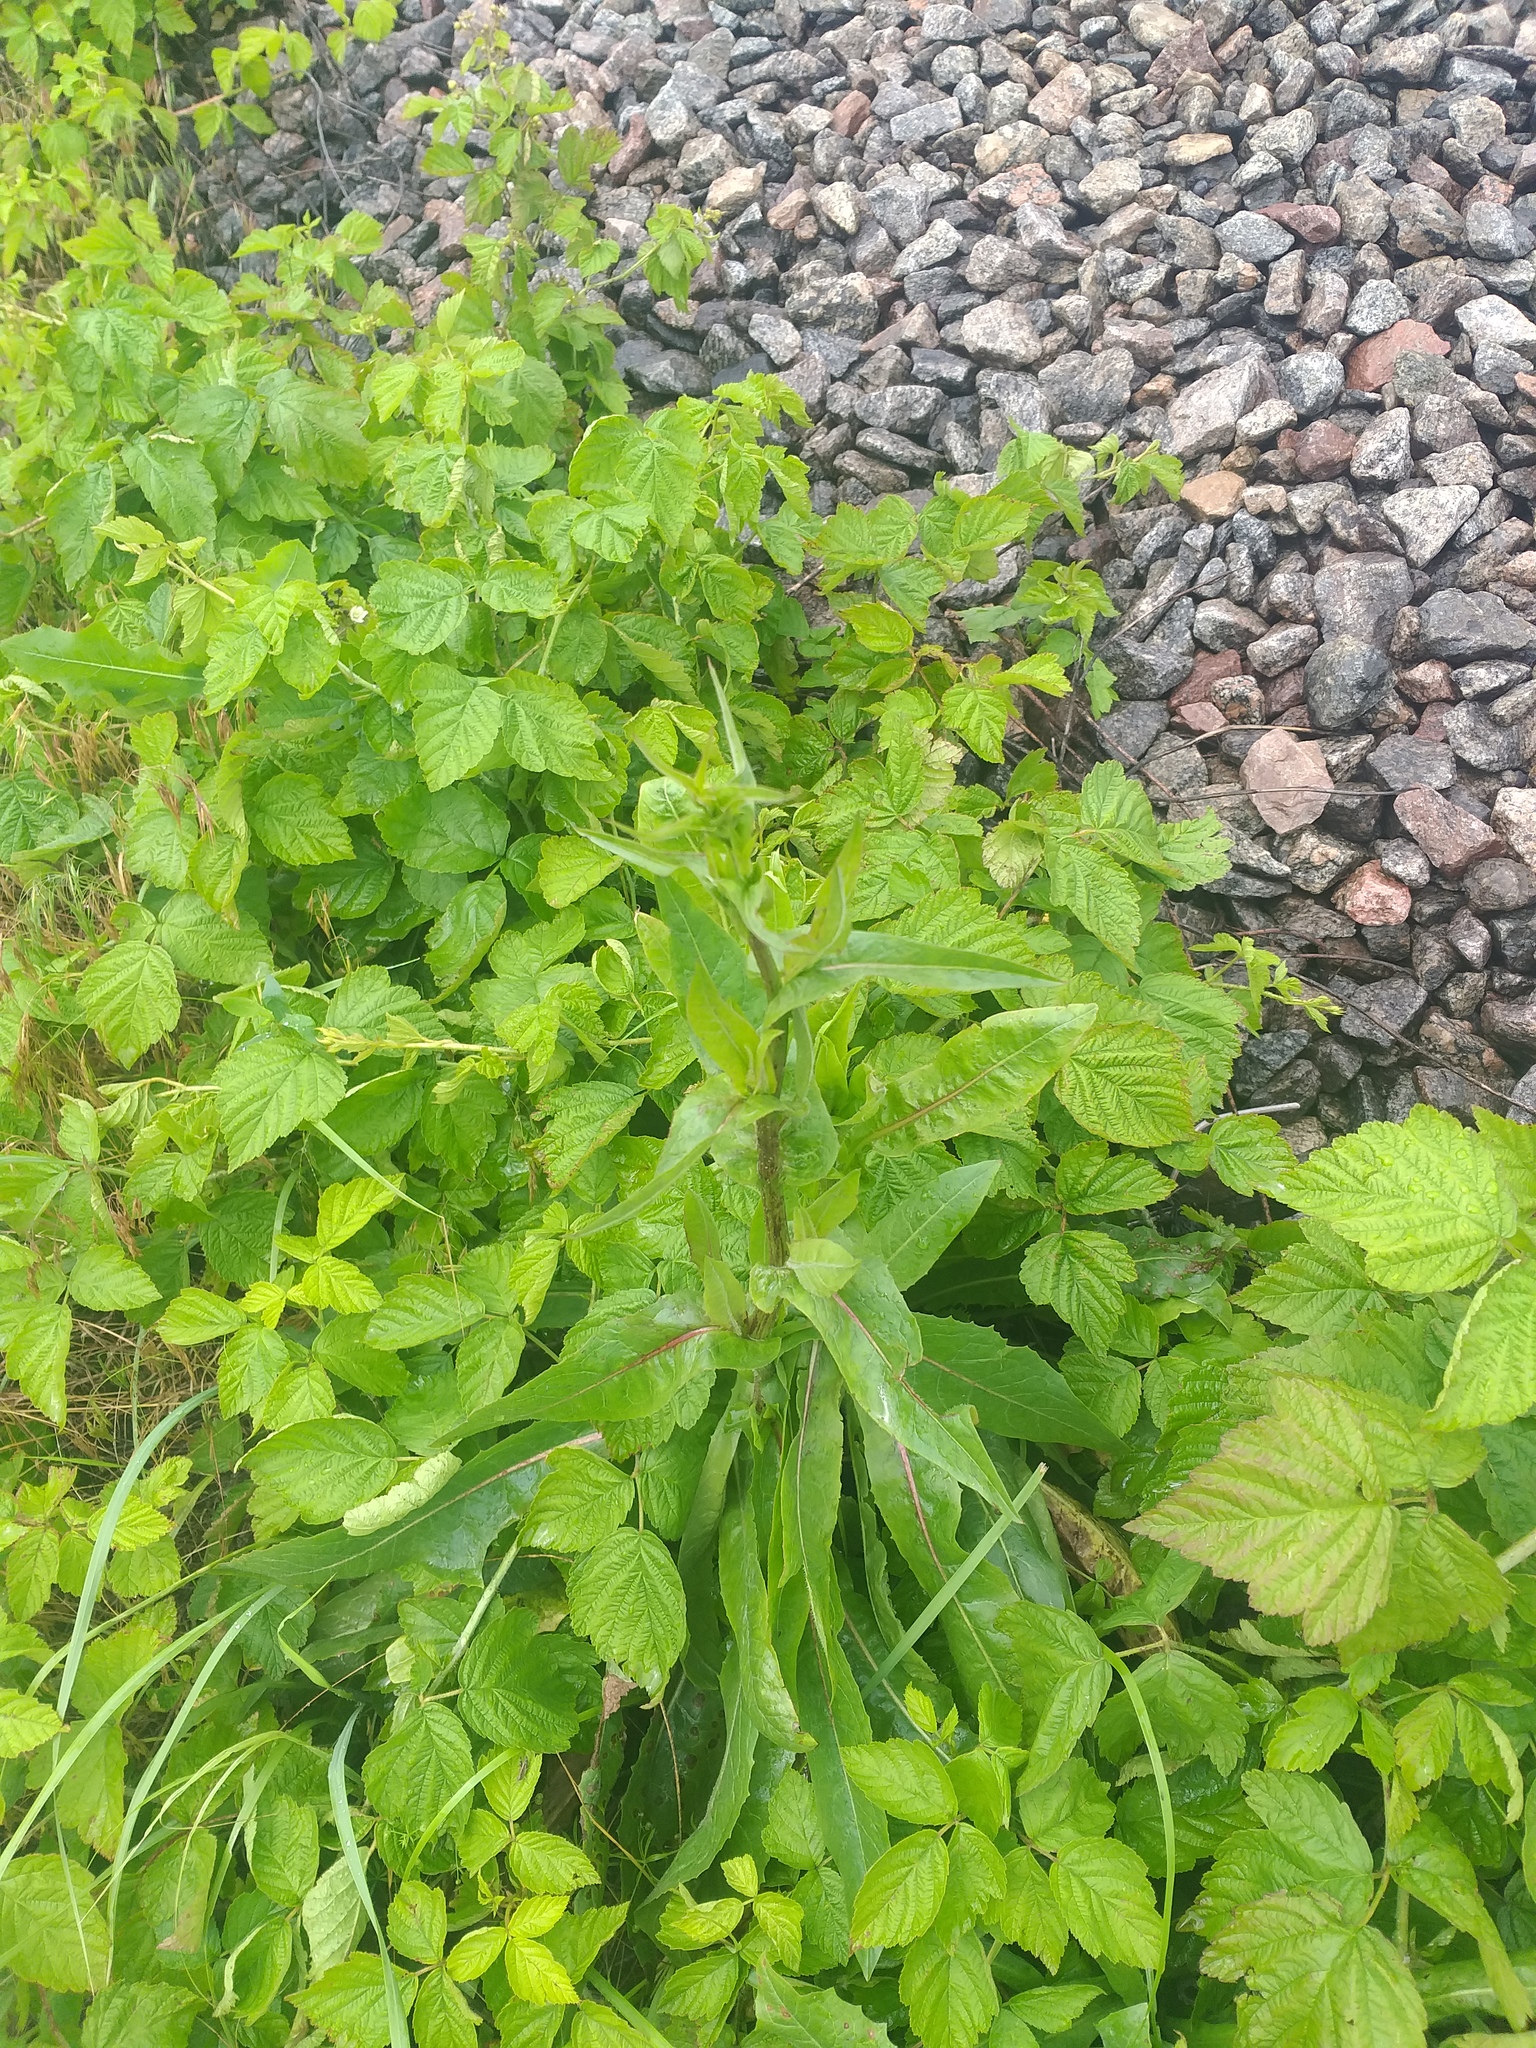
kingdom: Plantae
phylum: Tracheophyta
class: Magnoliopsida
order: Asterales
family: Asteraceae
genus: Cichorium
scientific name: Cichorium intybus
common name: Chicory
